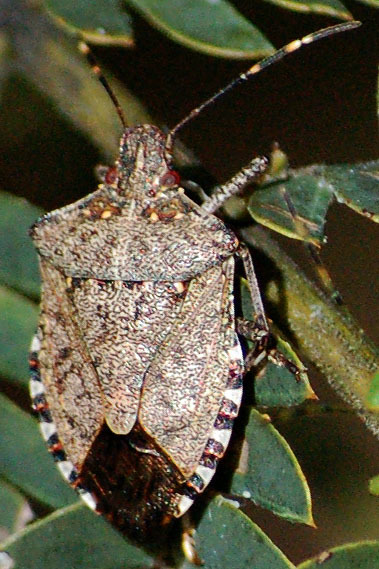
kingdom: Animalia
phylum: Arthropoda
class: Insecta
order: Hemiptera
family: Pentatomidae
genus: Halyomorpha
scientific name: Halyomorpha halys
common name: Brown marmorated stink bug
